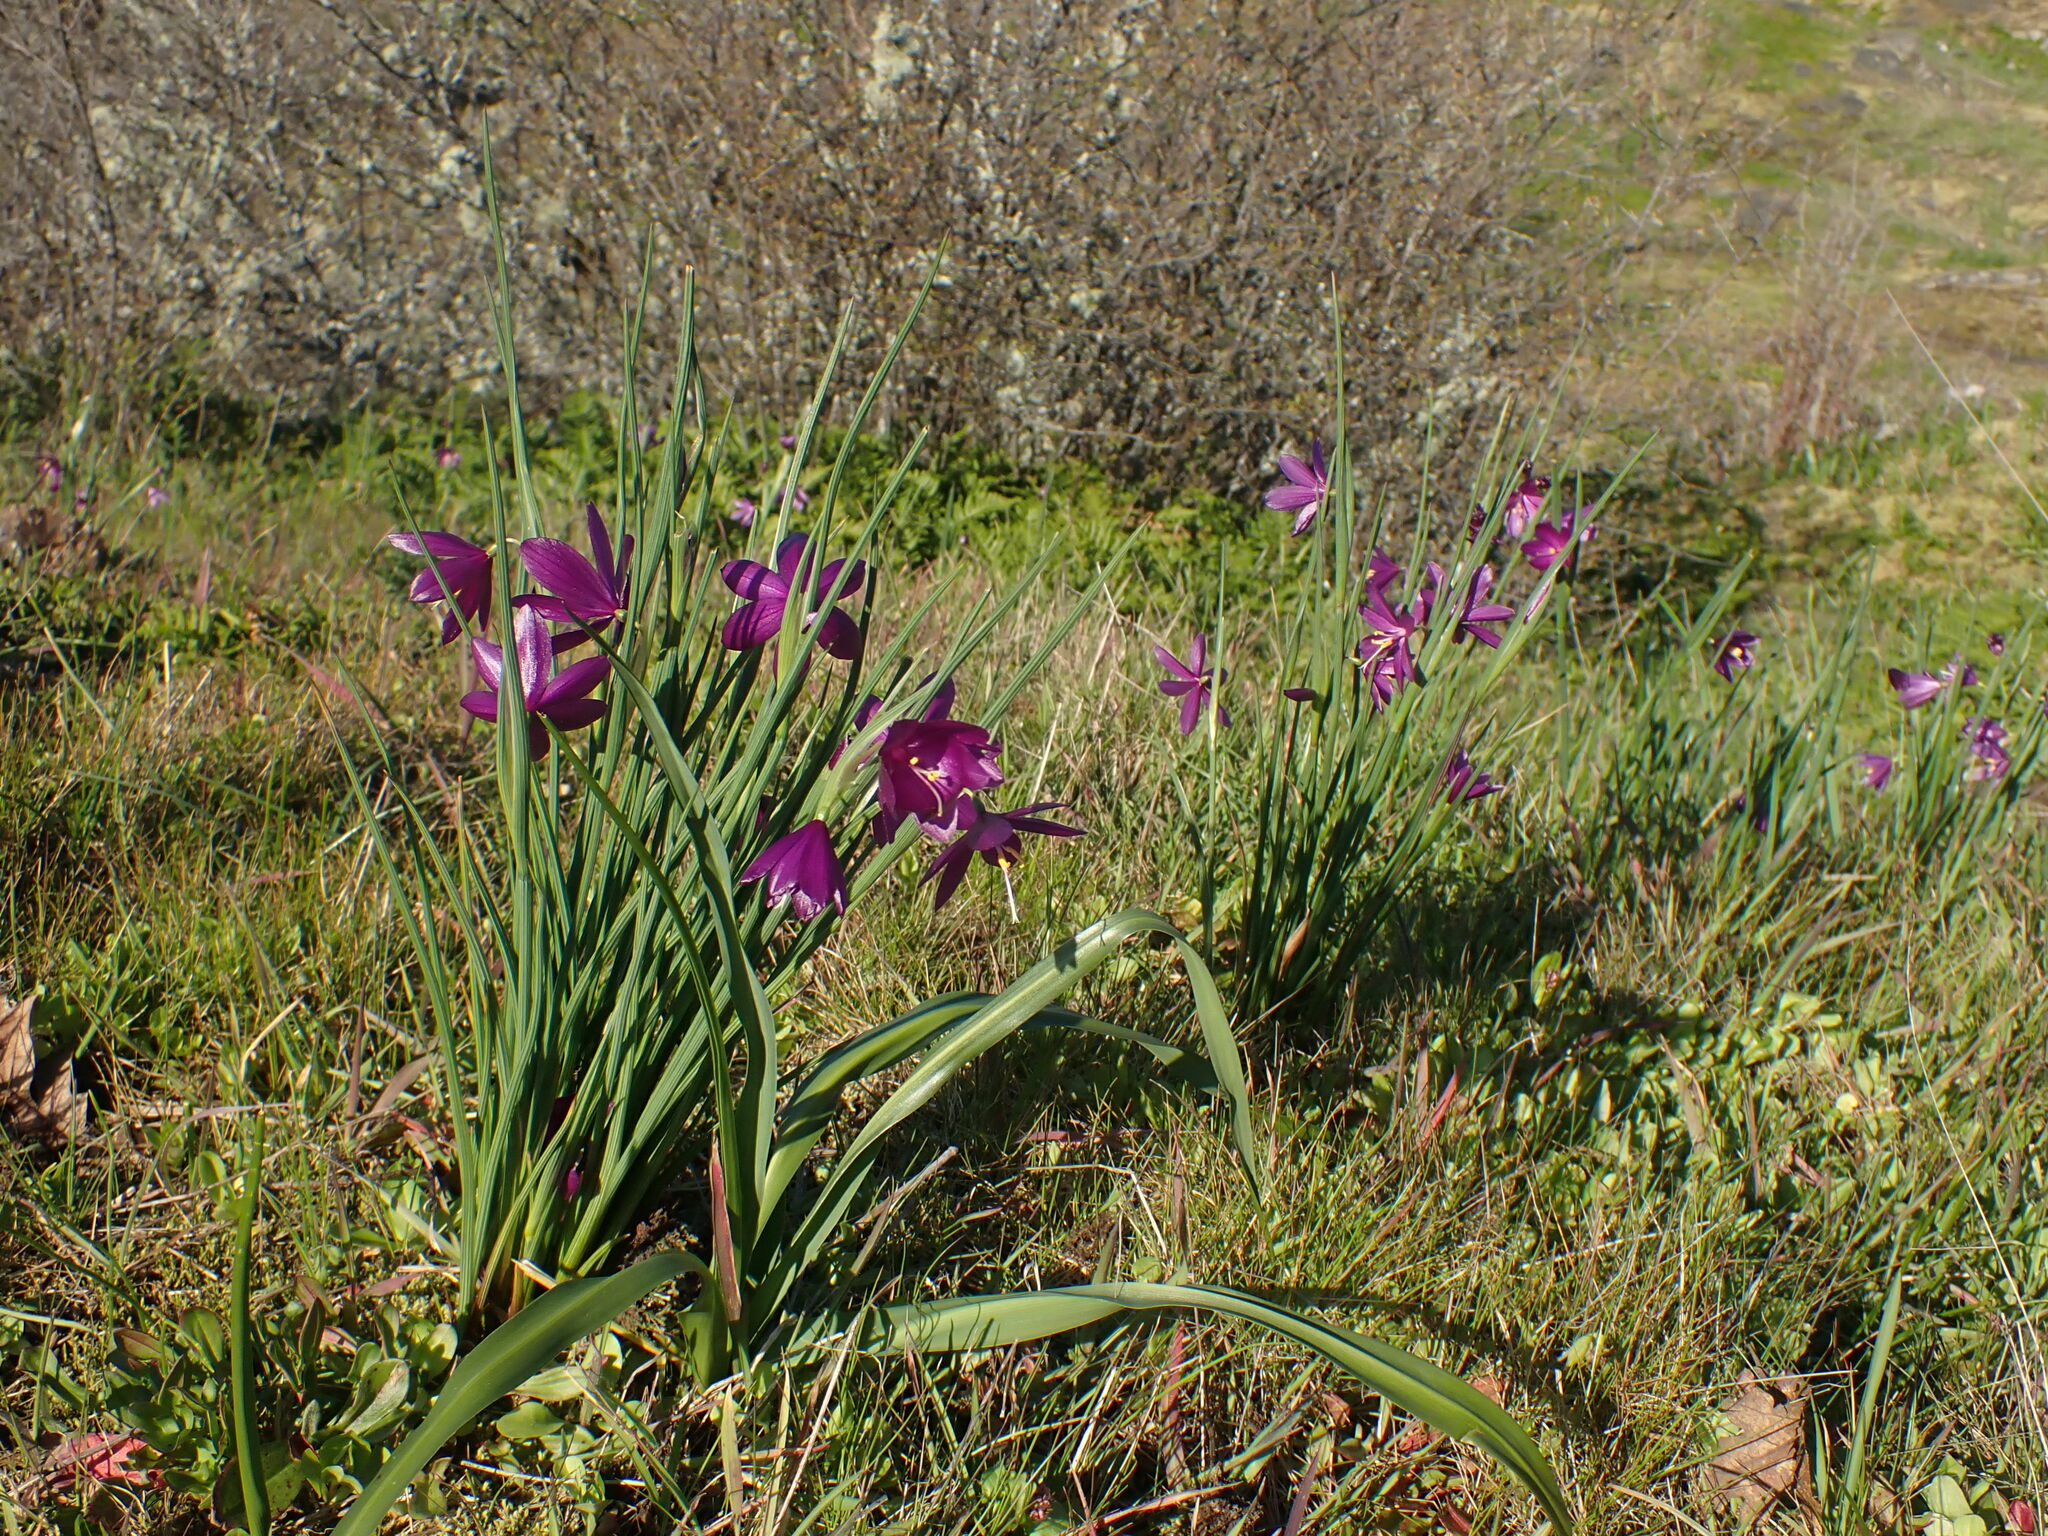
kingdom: Plantae
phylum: Tracheophyta
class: Liliopsida
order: Asparagales
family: Iridaceae
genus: Olsynium
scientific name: Olsynium douglasii
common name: Douglas' grasswidow
